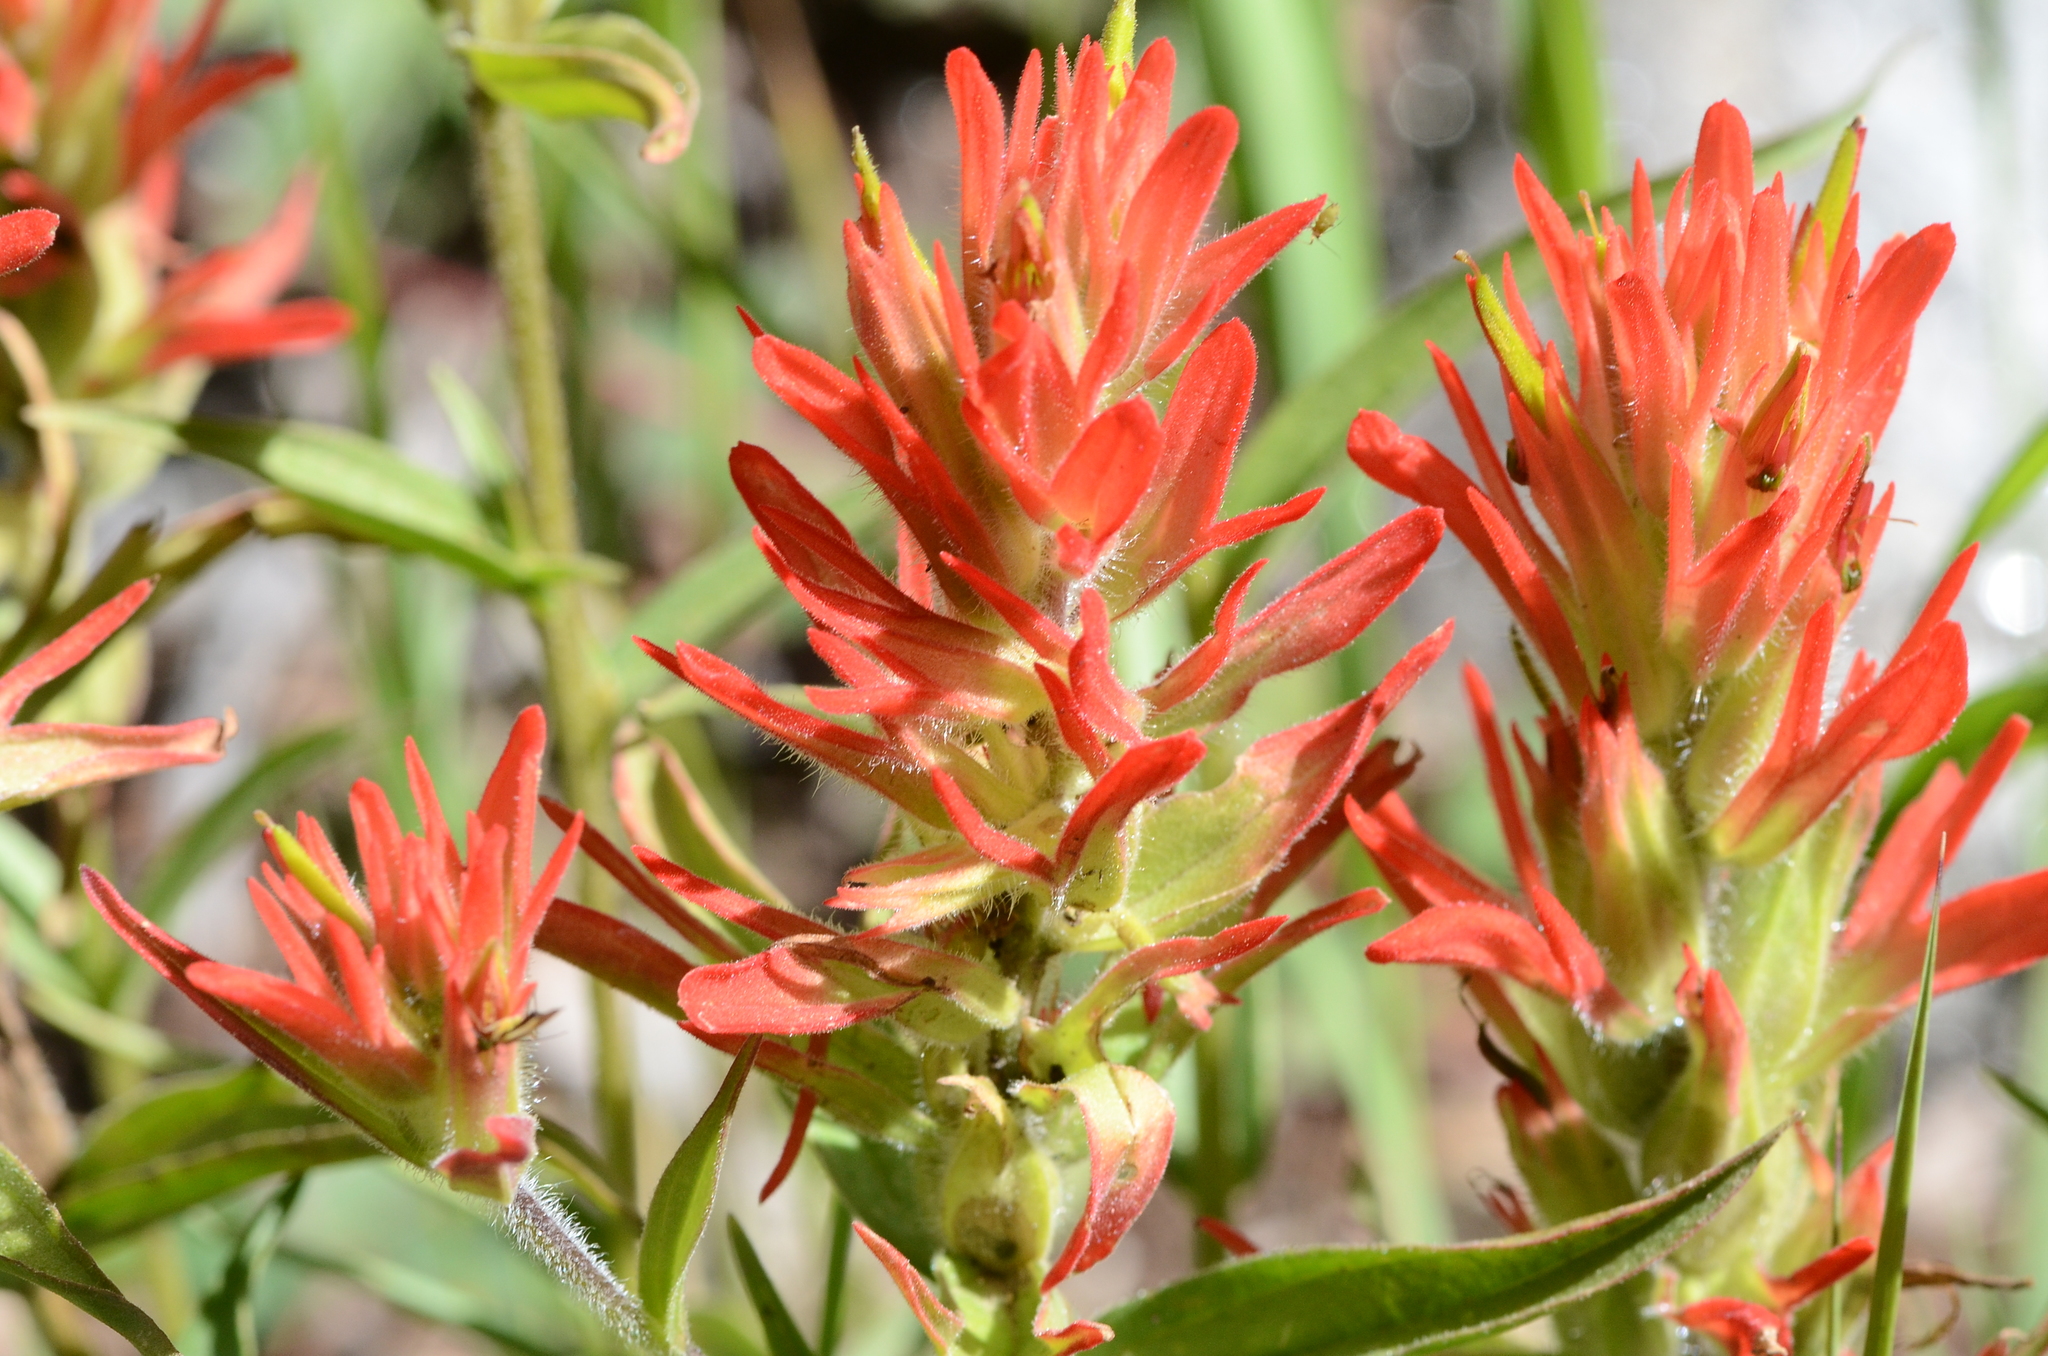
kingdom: Plantae
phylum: Tracheophyta
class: Magnoliopsida
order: Lamiales
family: Orobanchaceae
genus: Castilleja
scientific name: Castilleja miniata
